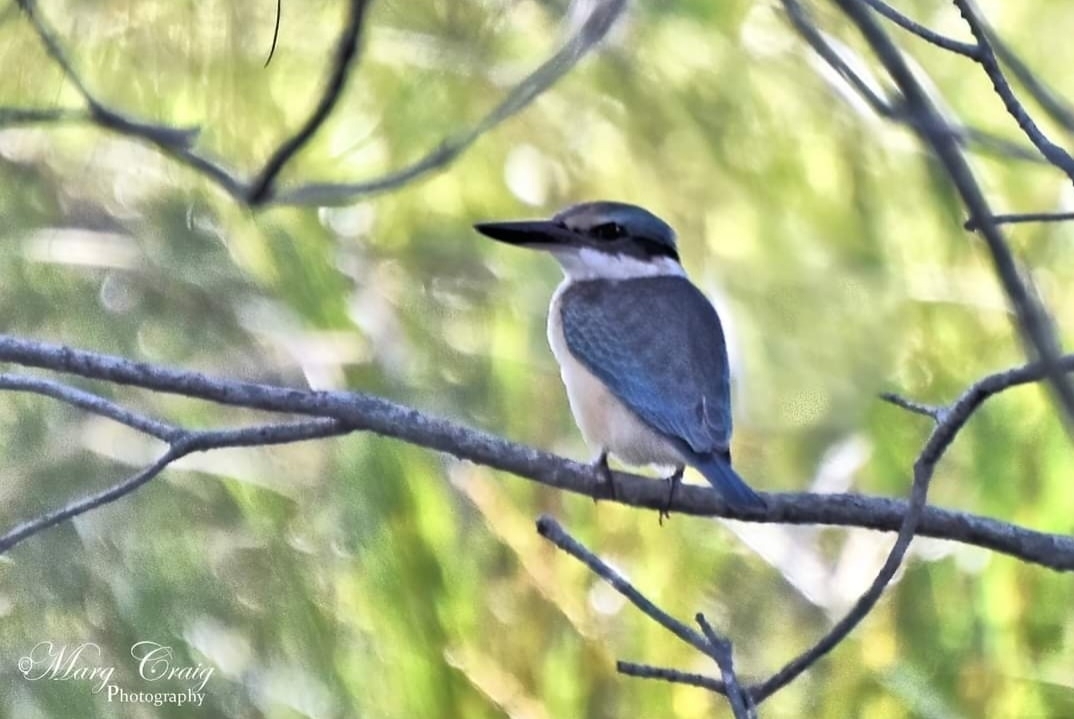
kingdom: Animalia
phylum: Chordata
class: Aves
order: Coraciiformes
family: Alcedinidae
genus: Todiramphus
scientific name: Todiramphus sanctus
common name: Sacred kingfisher
